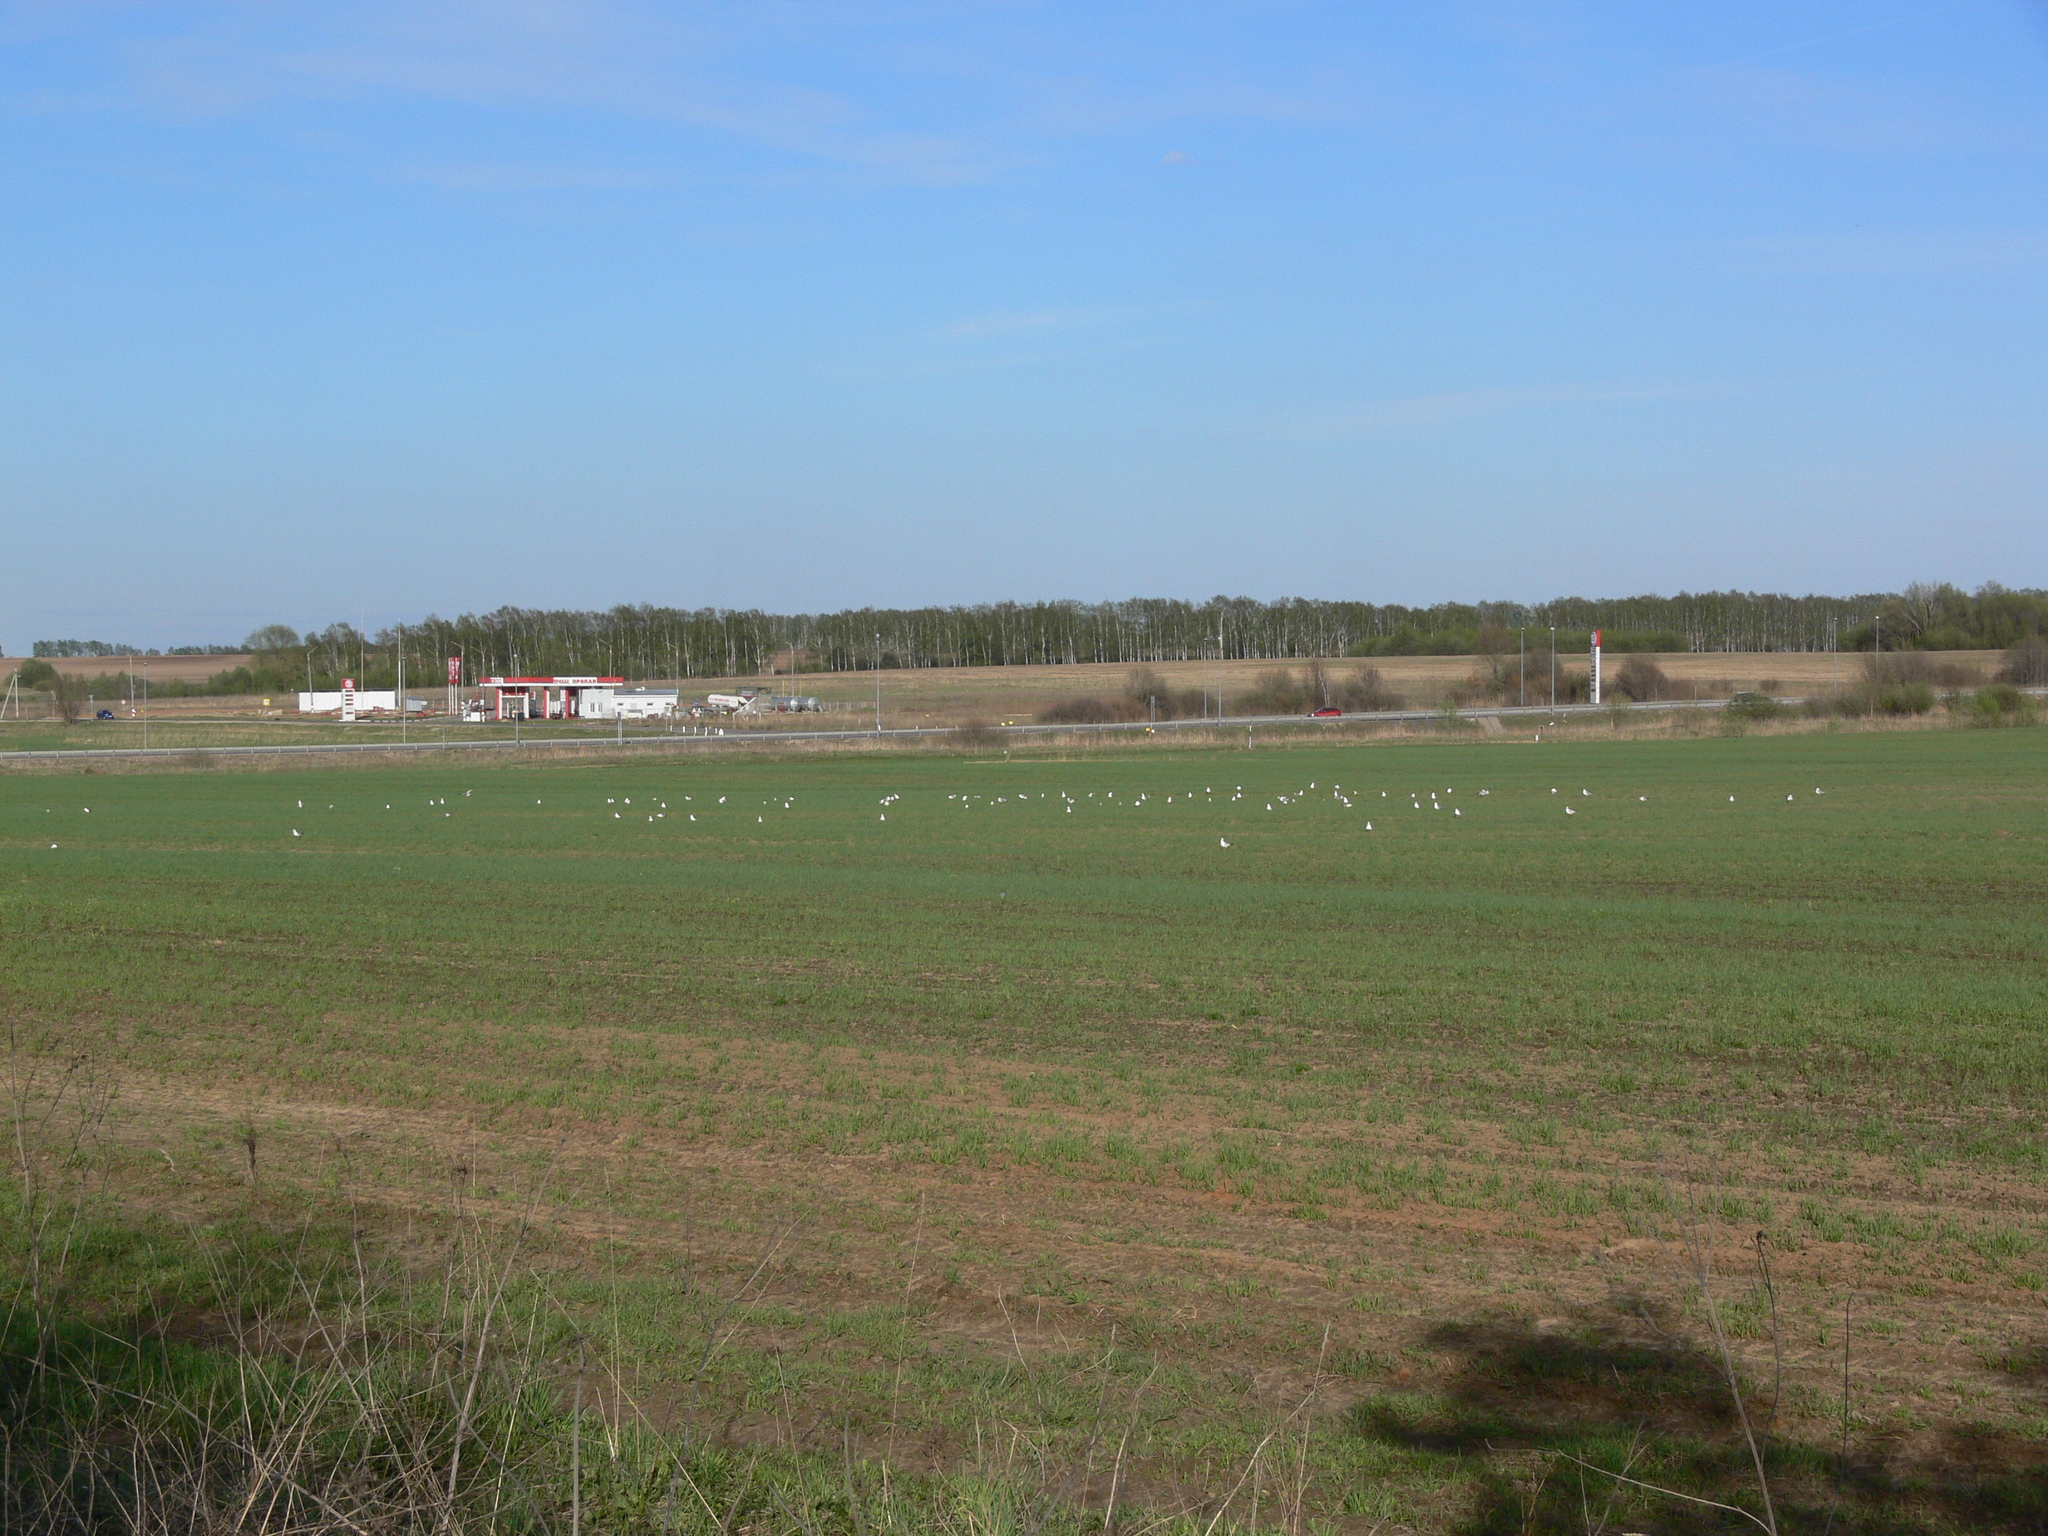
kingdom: Animalia
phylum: Chordata
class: Aves
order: Charadriiformes
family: Laridae
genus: Larus
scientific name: Larus canus
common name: Mew gull
